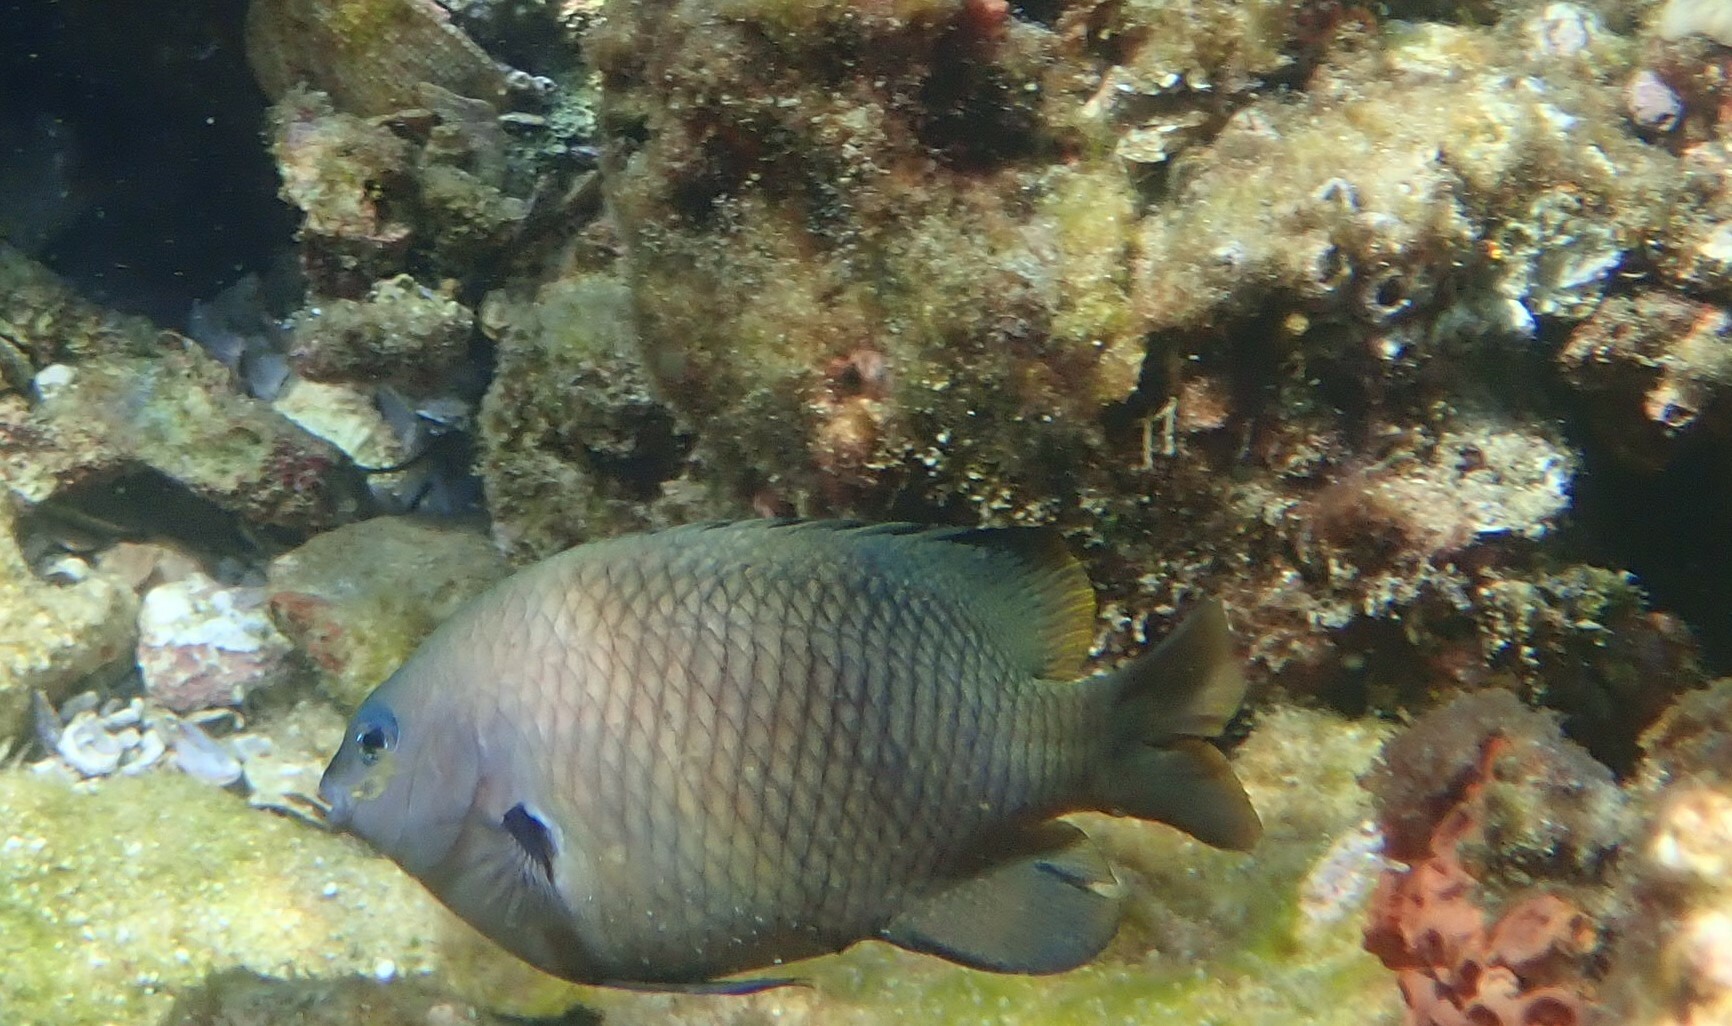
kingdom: Animalia
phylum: Chordata
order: Perciformes
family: Pomacentridae
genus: Stegastes
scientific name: Stegastes fasciolatus
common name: Pacific gregory
